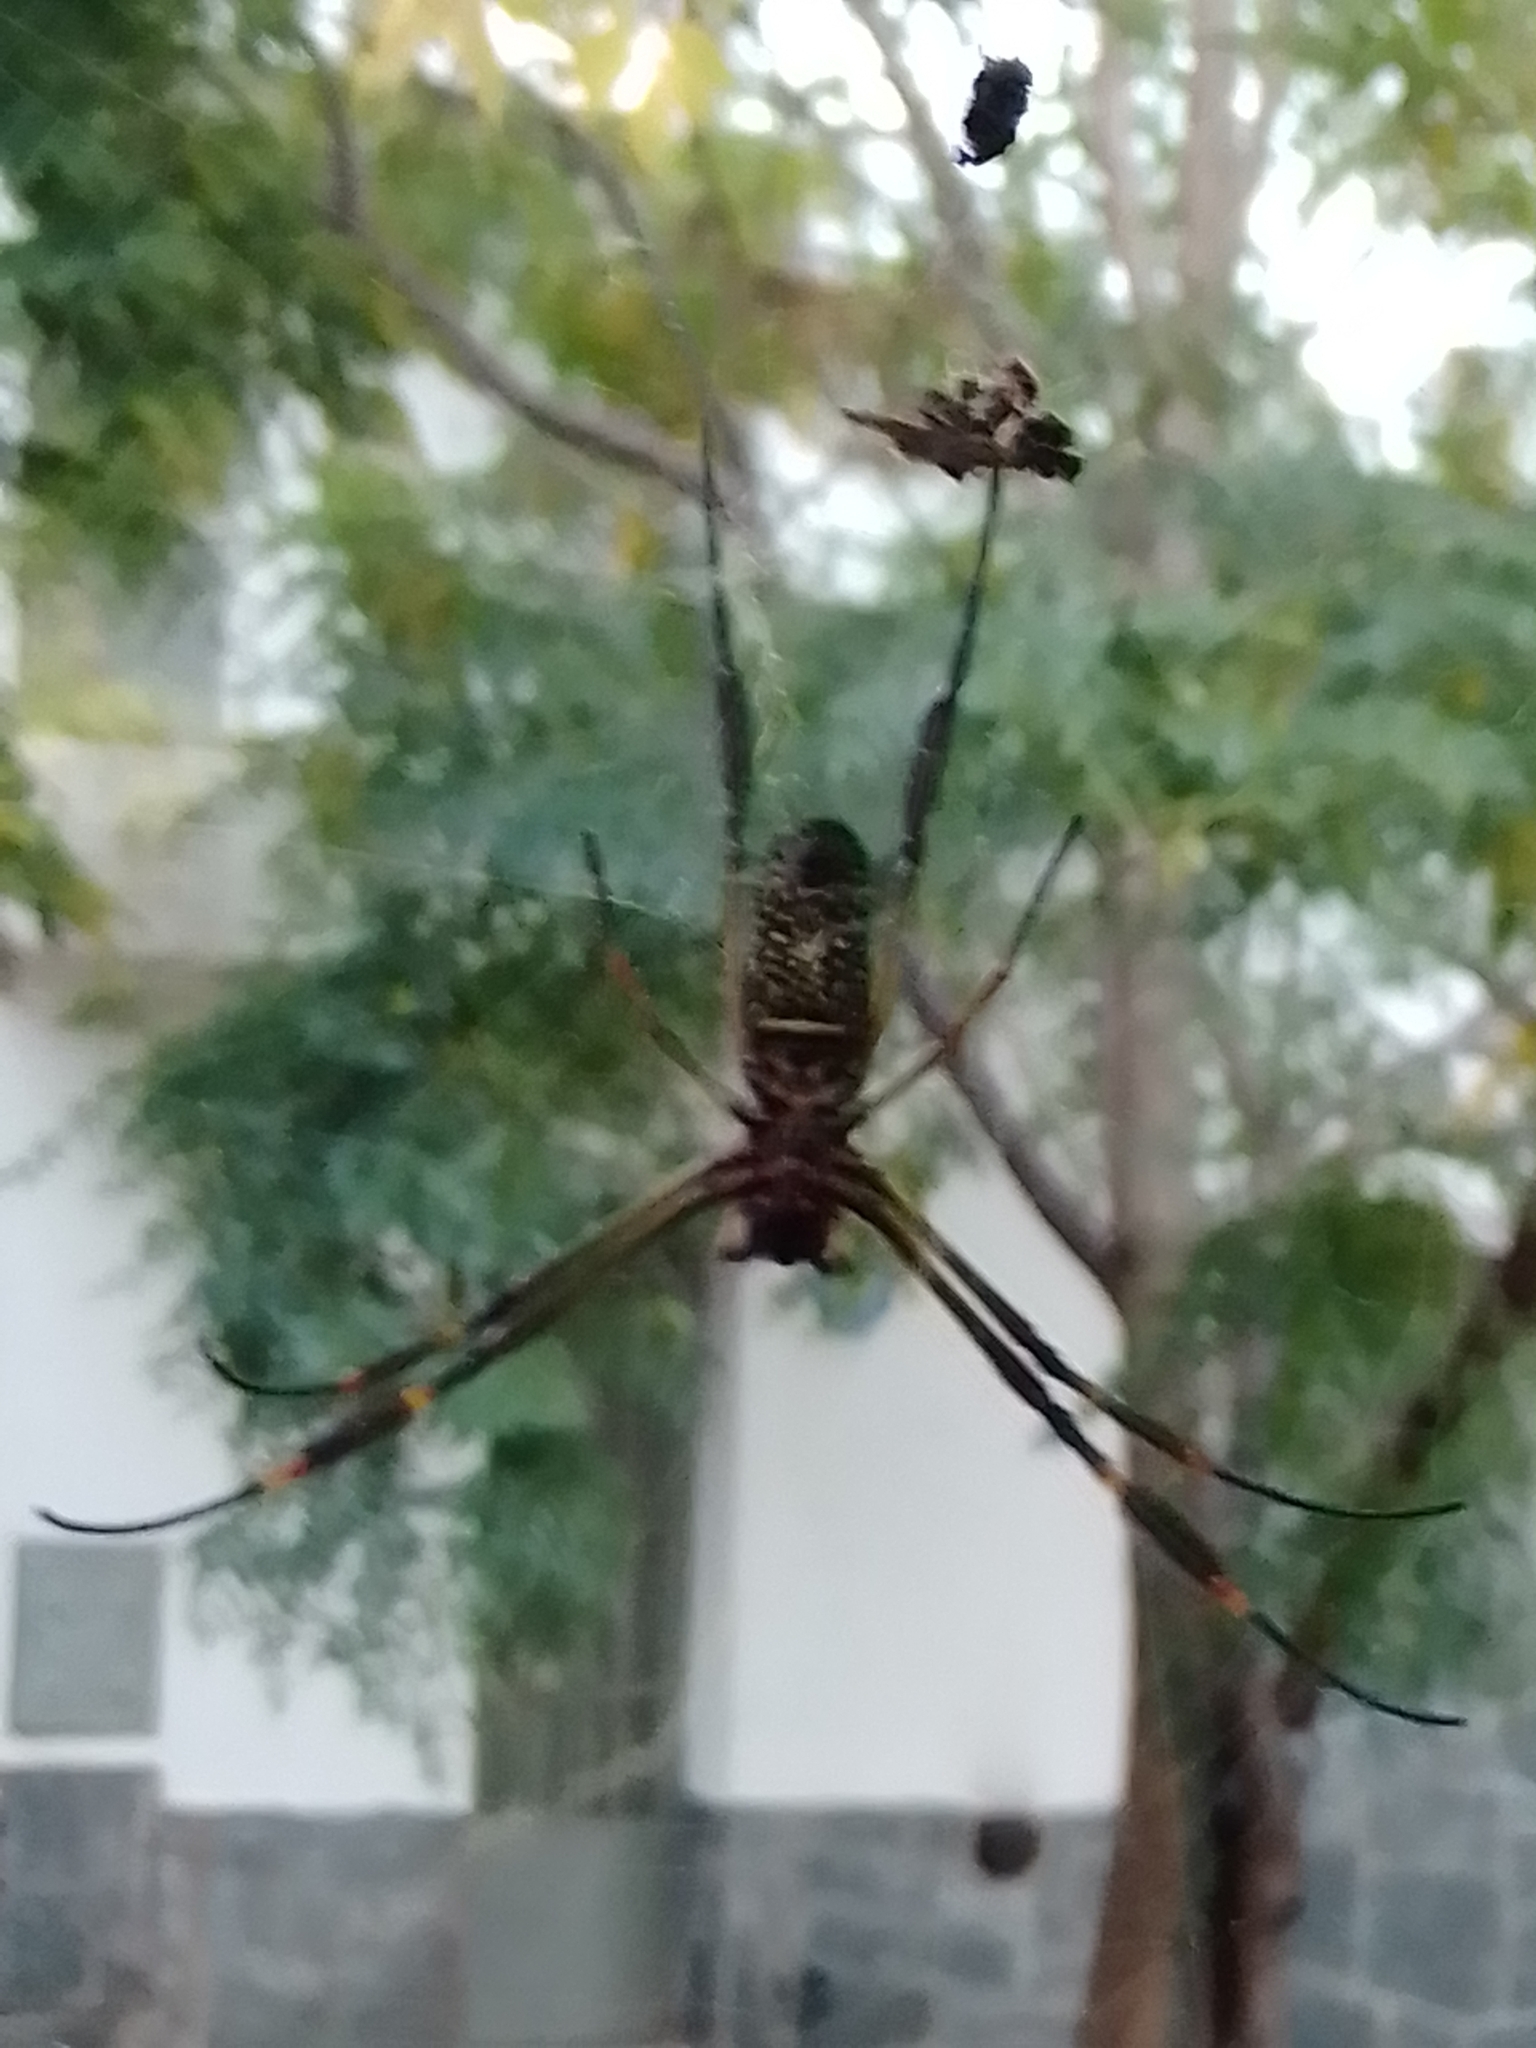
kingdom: Animalia
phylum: Arthropoda
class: Arachnida
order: Araneae
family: Araneidae
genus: Trichonephila
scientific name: Trichonephila clavipes
